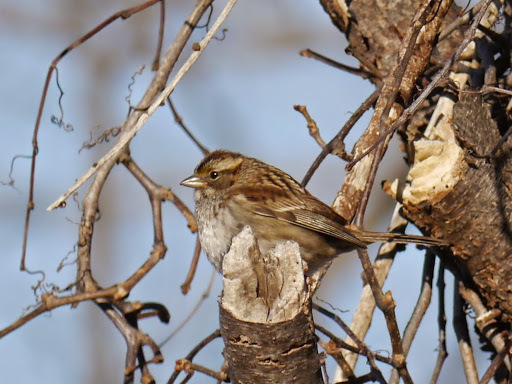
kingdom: Animalia
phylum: Chordata
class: Aves
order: Passeriformes
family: Passerellidae
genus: Zonotrichia
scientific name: Zonotrichia albicollis
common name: White-throated sparrow
